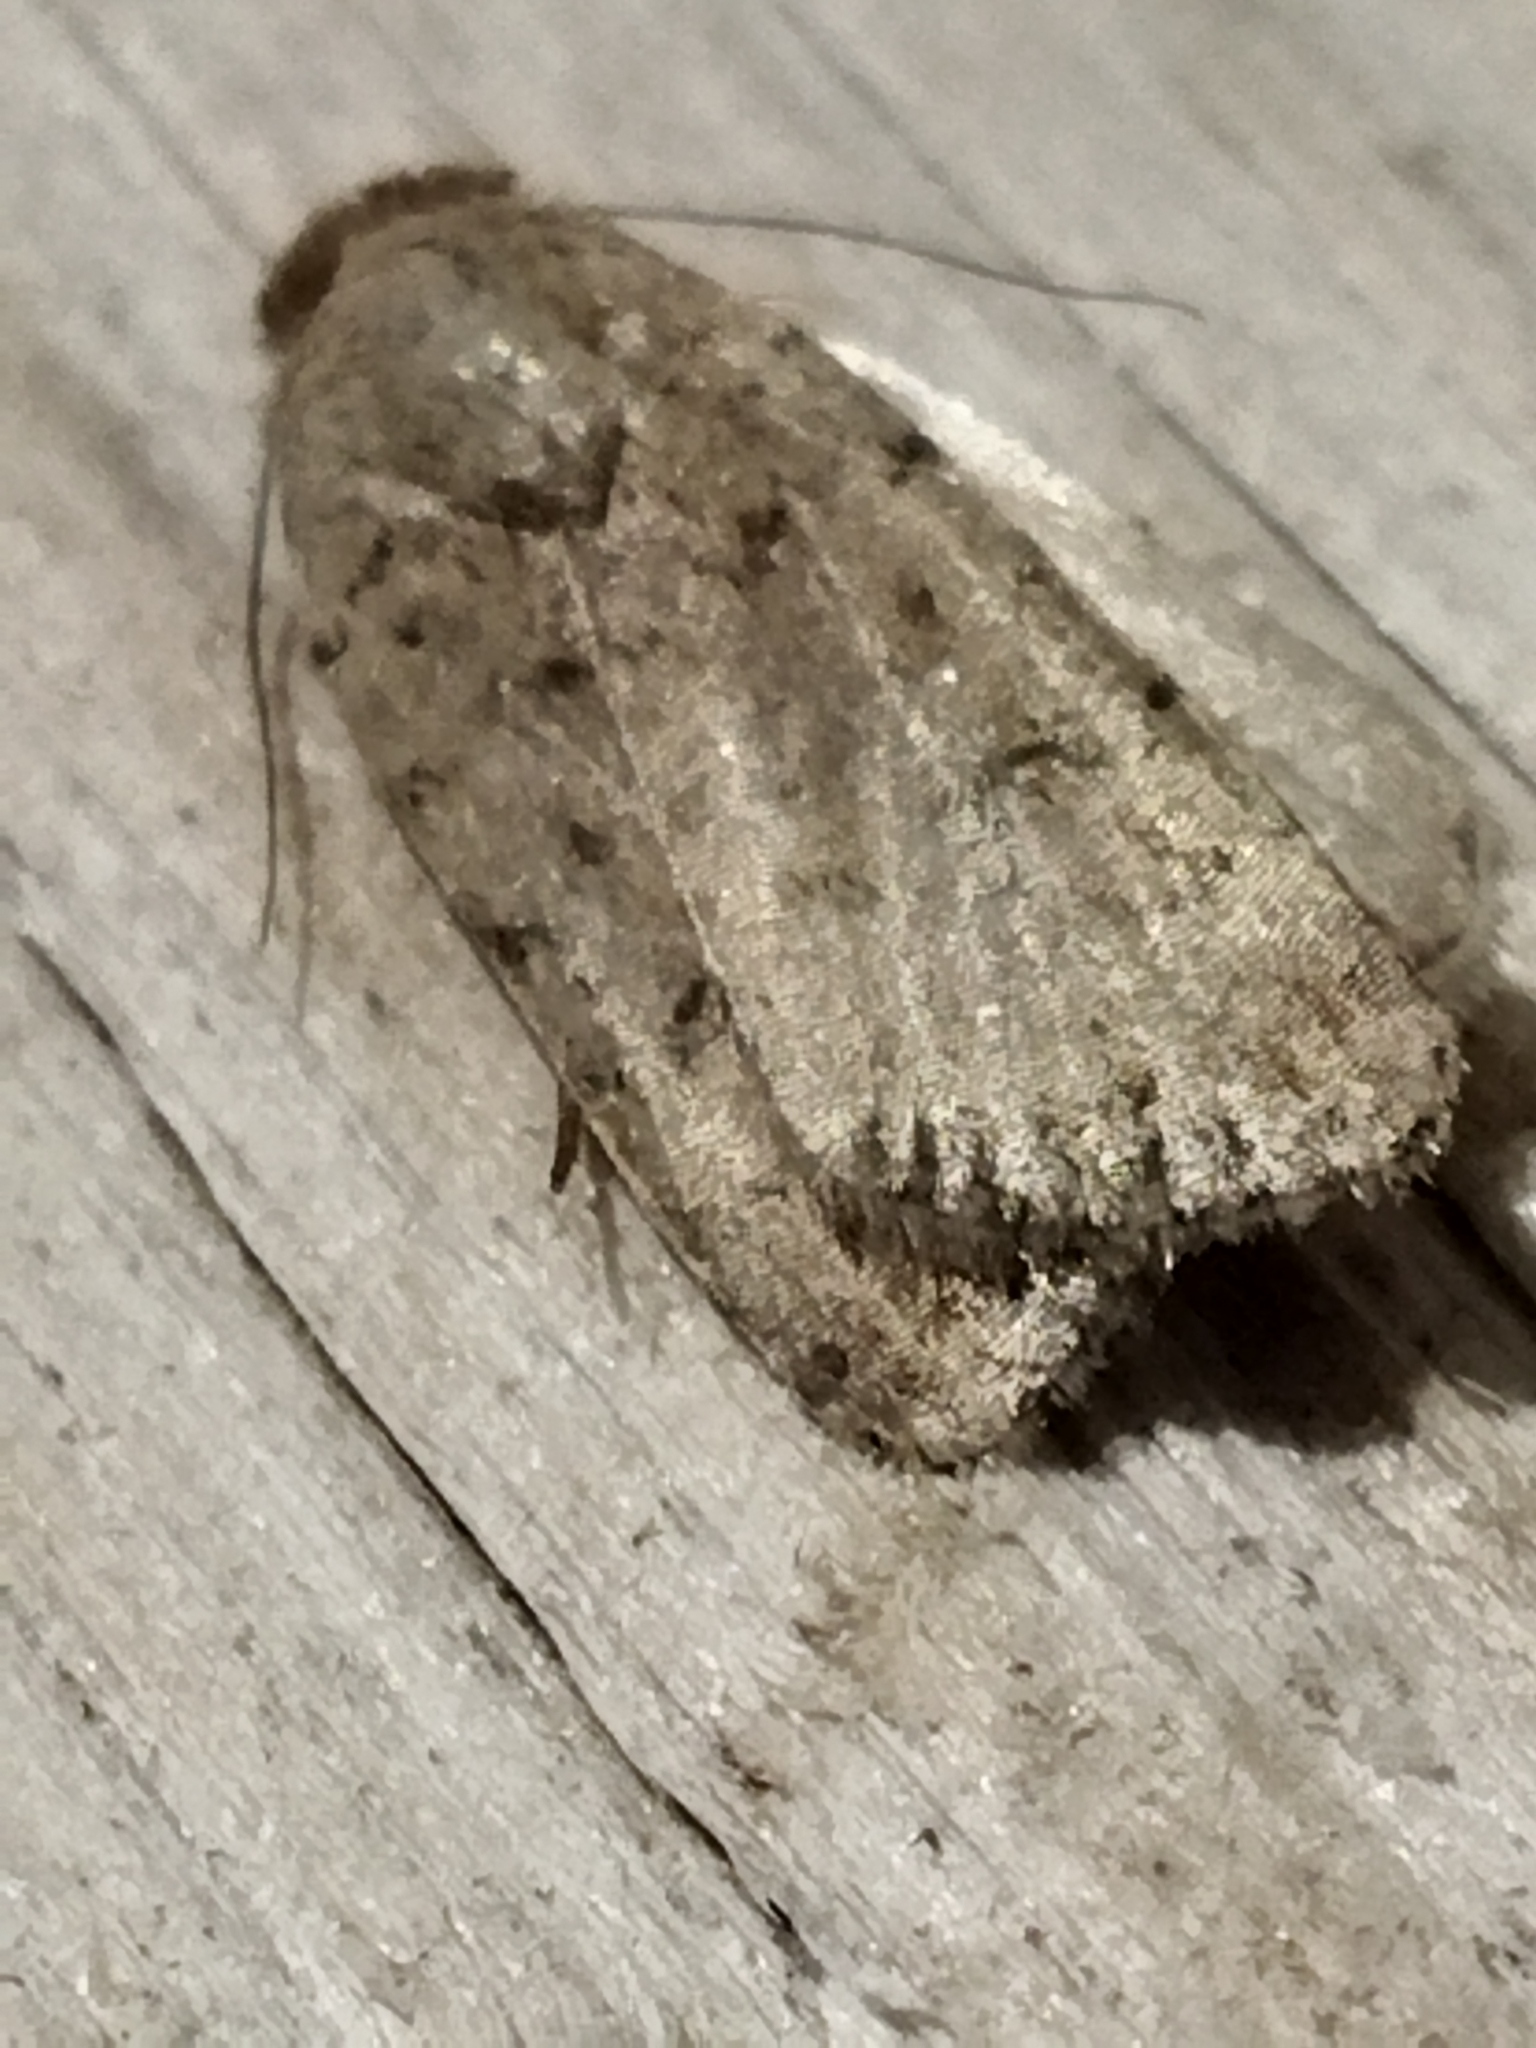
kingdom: Animalia
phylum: Arthropoda
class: Insecta
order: Lepidoptera
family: Noctuidae
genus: Caradrina
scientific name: Caradrina clavipalpis
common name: Pale mottled willow
